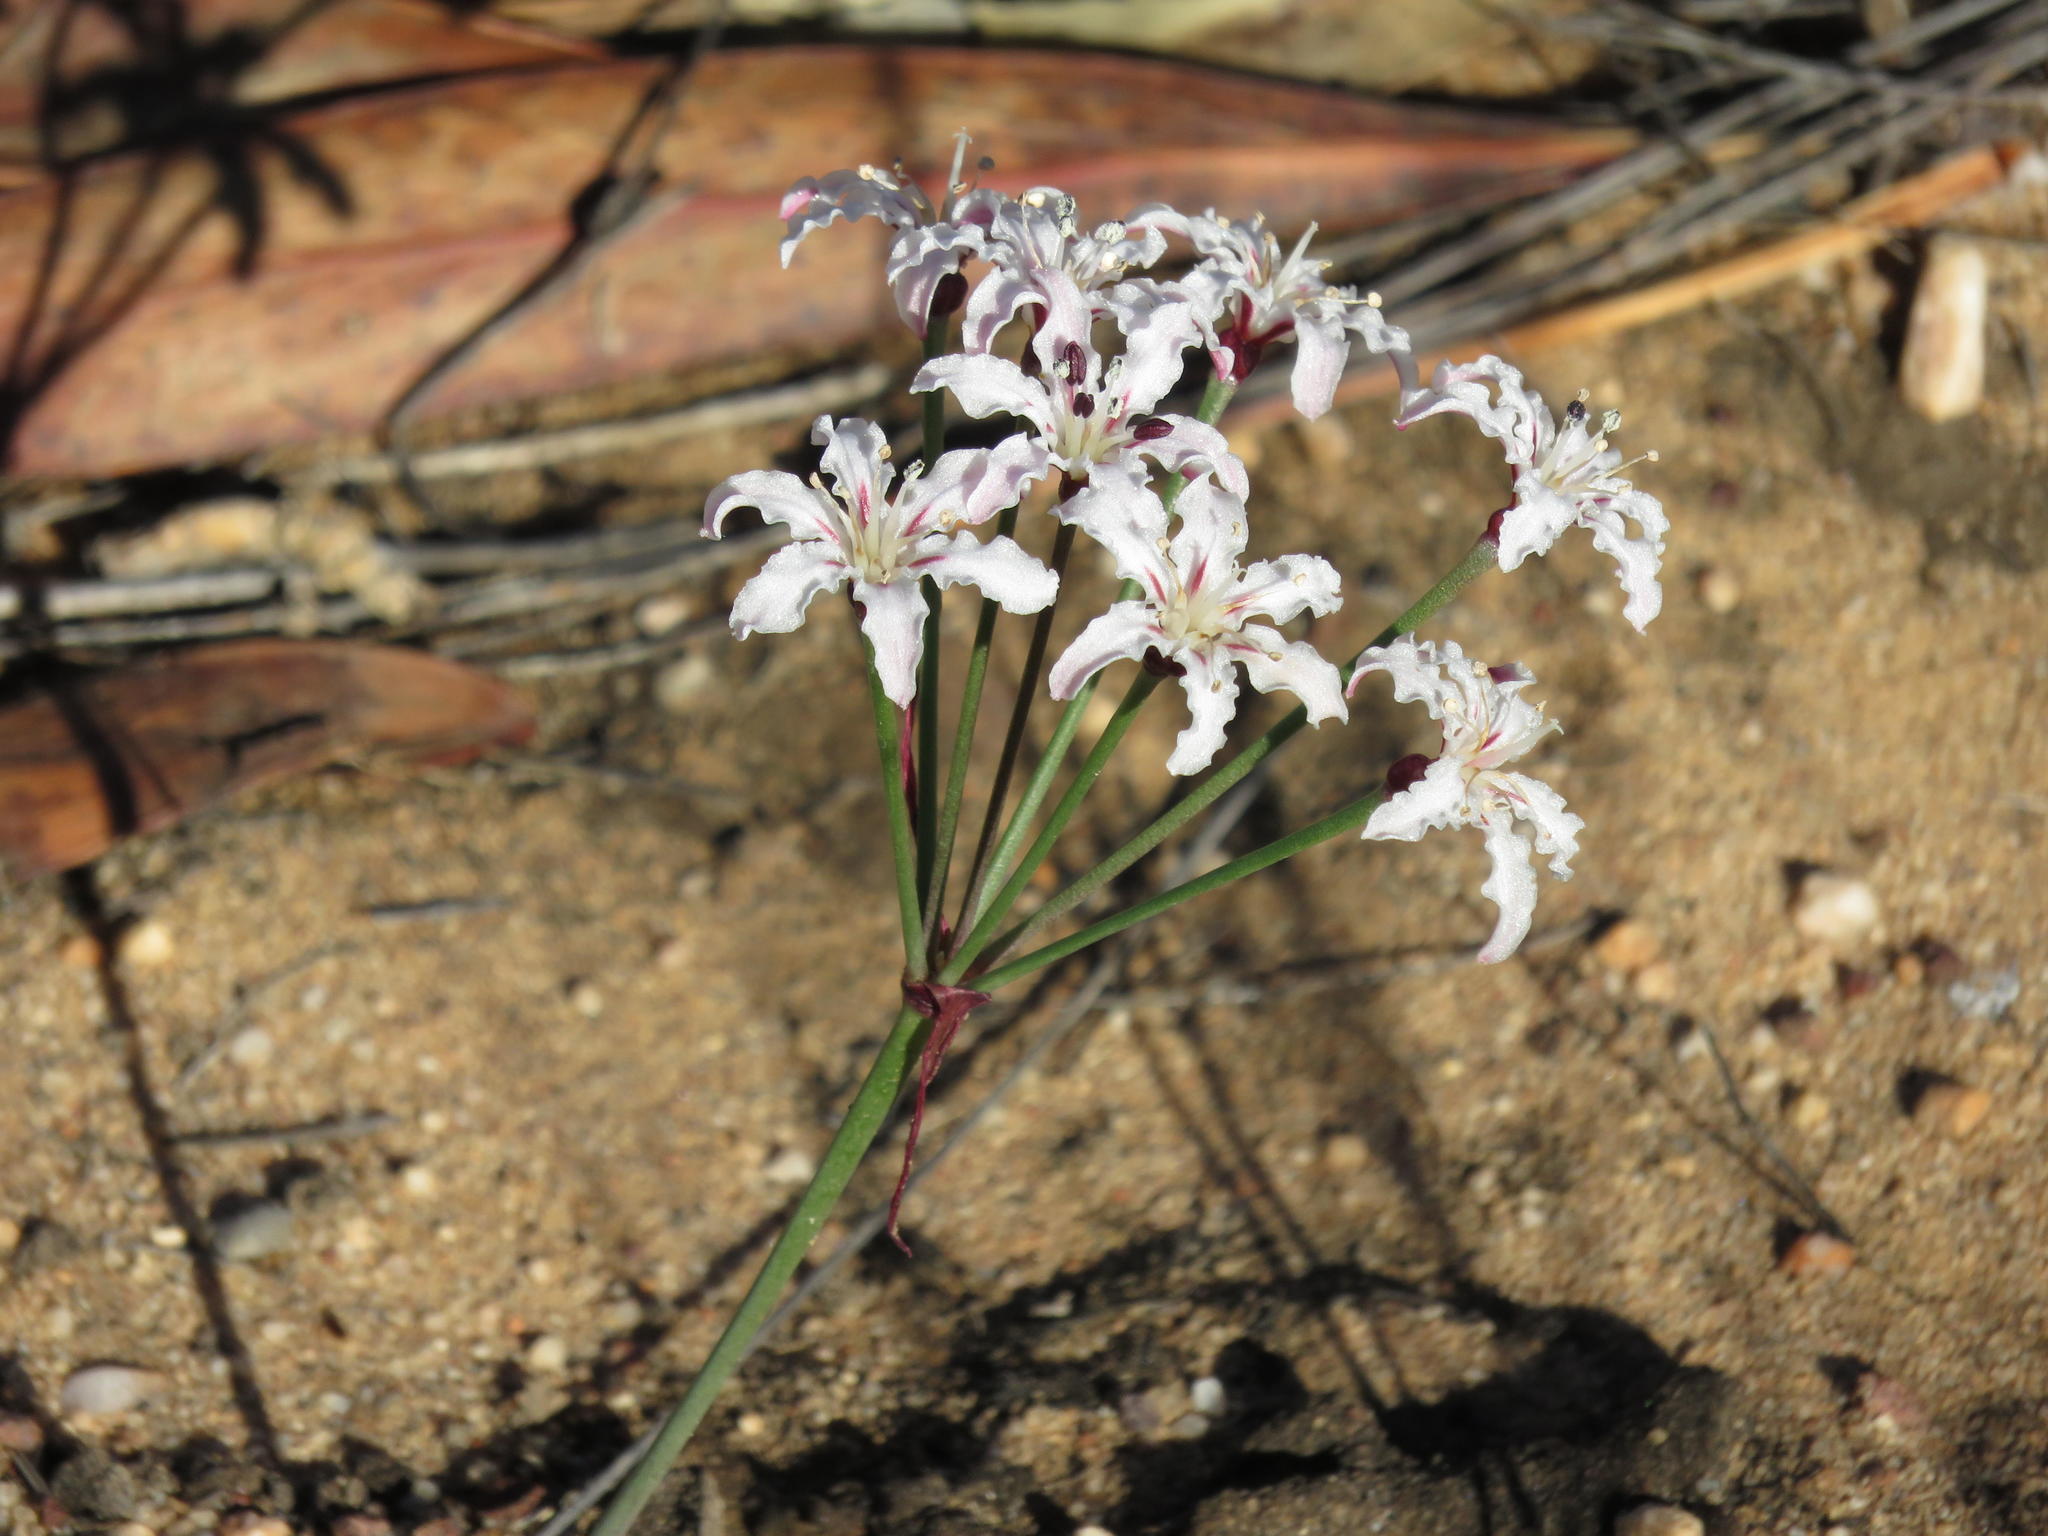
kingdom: Plantae
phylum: Tracheophyta
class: Liliopsida
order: Asparagales
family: Amaryllidaceae
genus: Hessea
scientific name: Hessea monticola
